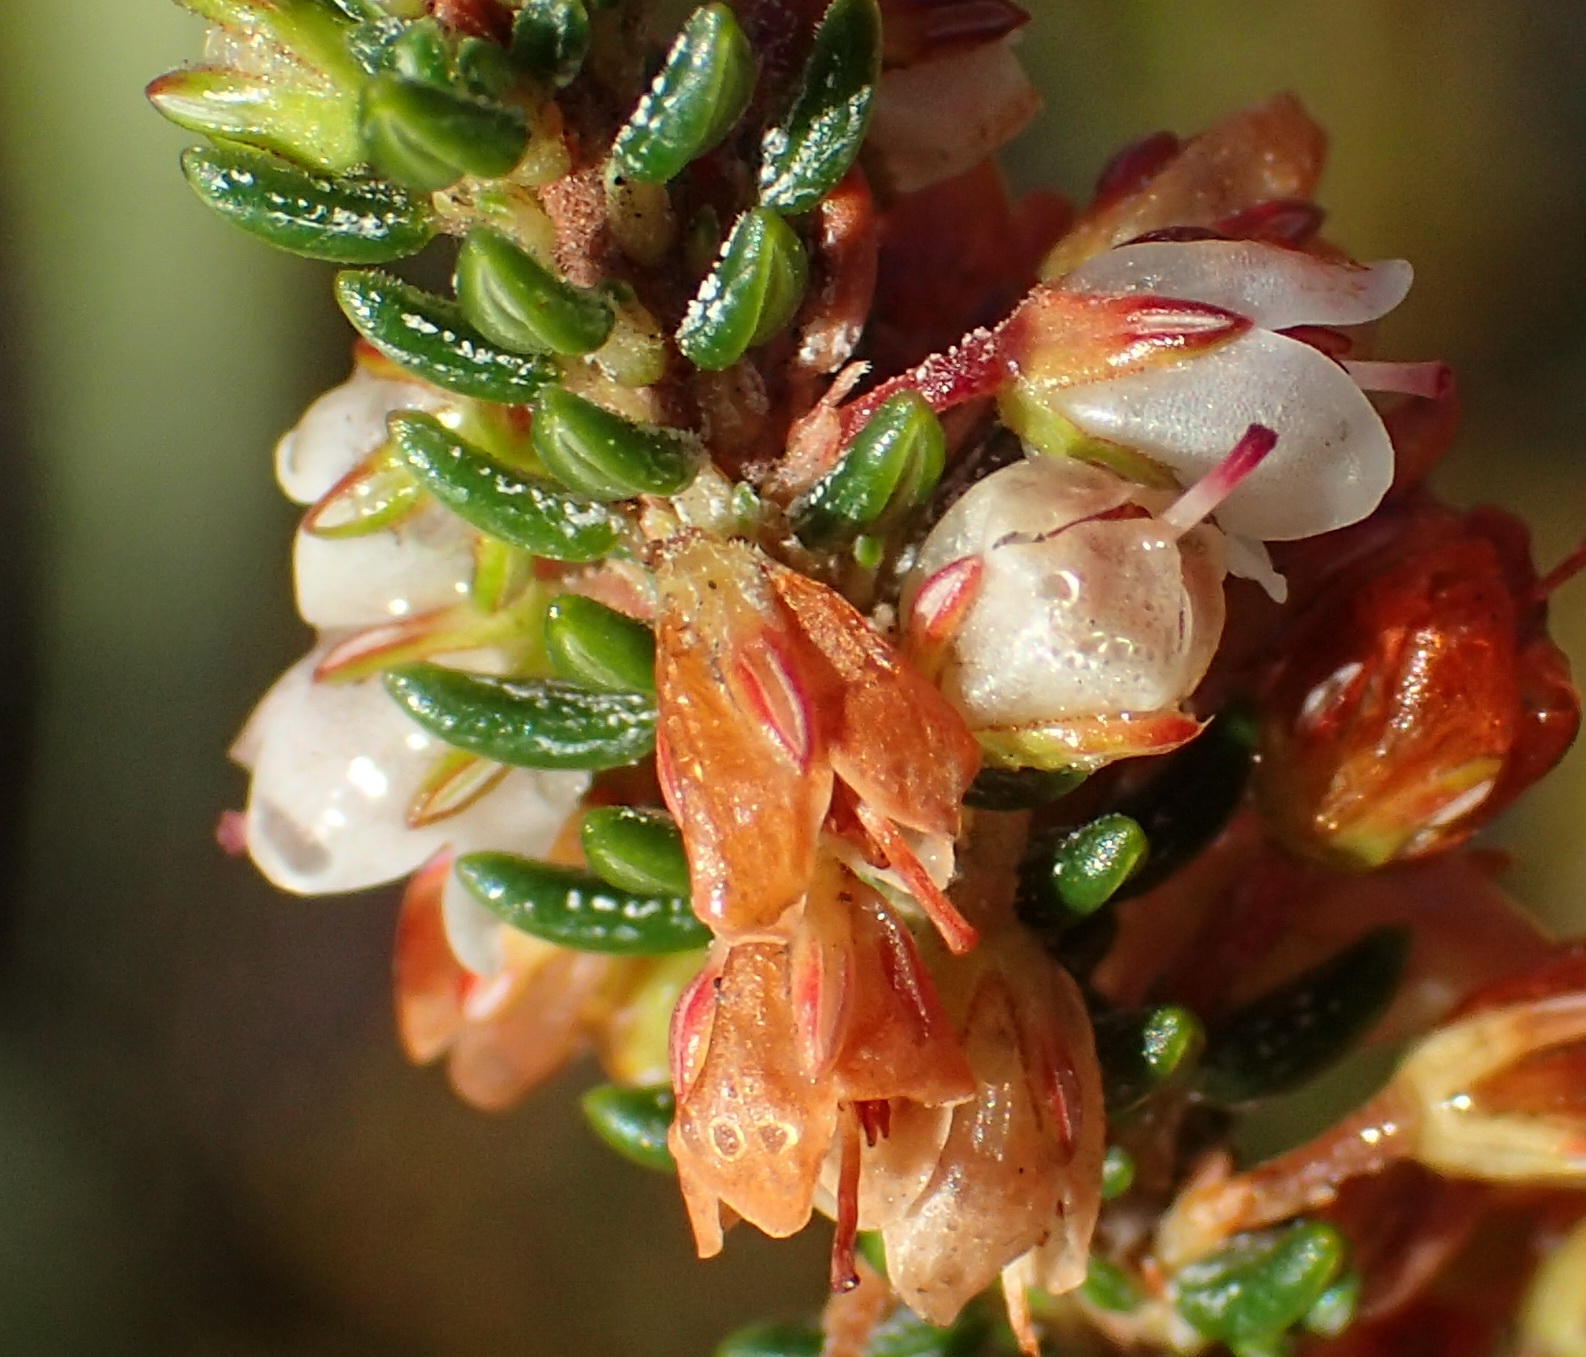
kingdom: Plantae
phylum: Tracheophyta
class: Magnoliopsida
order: Ericales
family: Ericaceae
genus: Erica
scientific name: Erica deflexa
